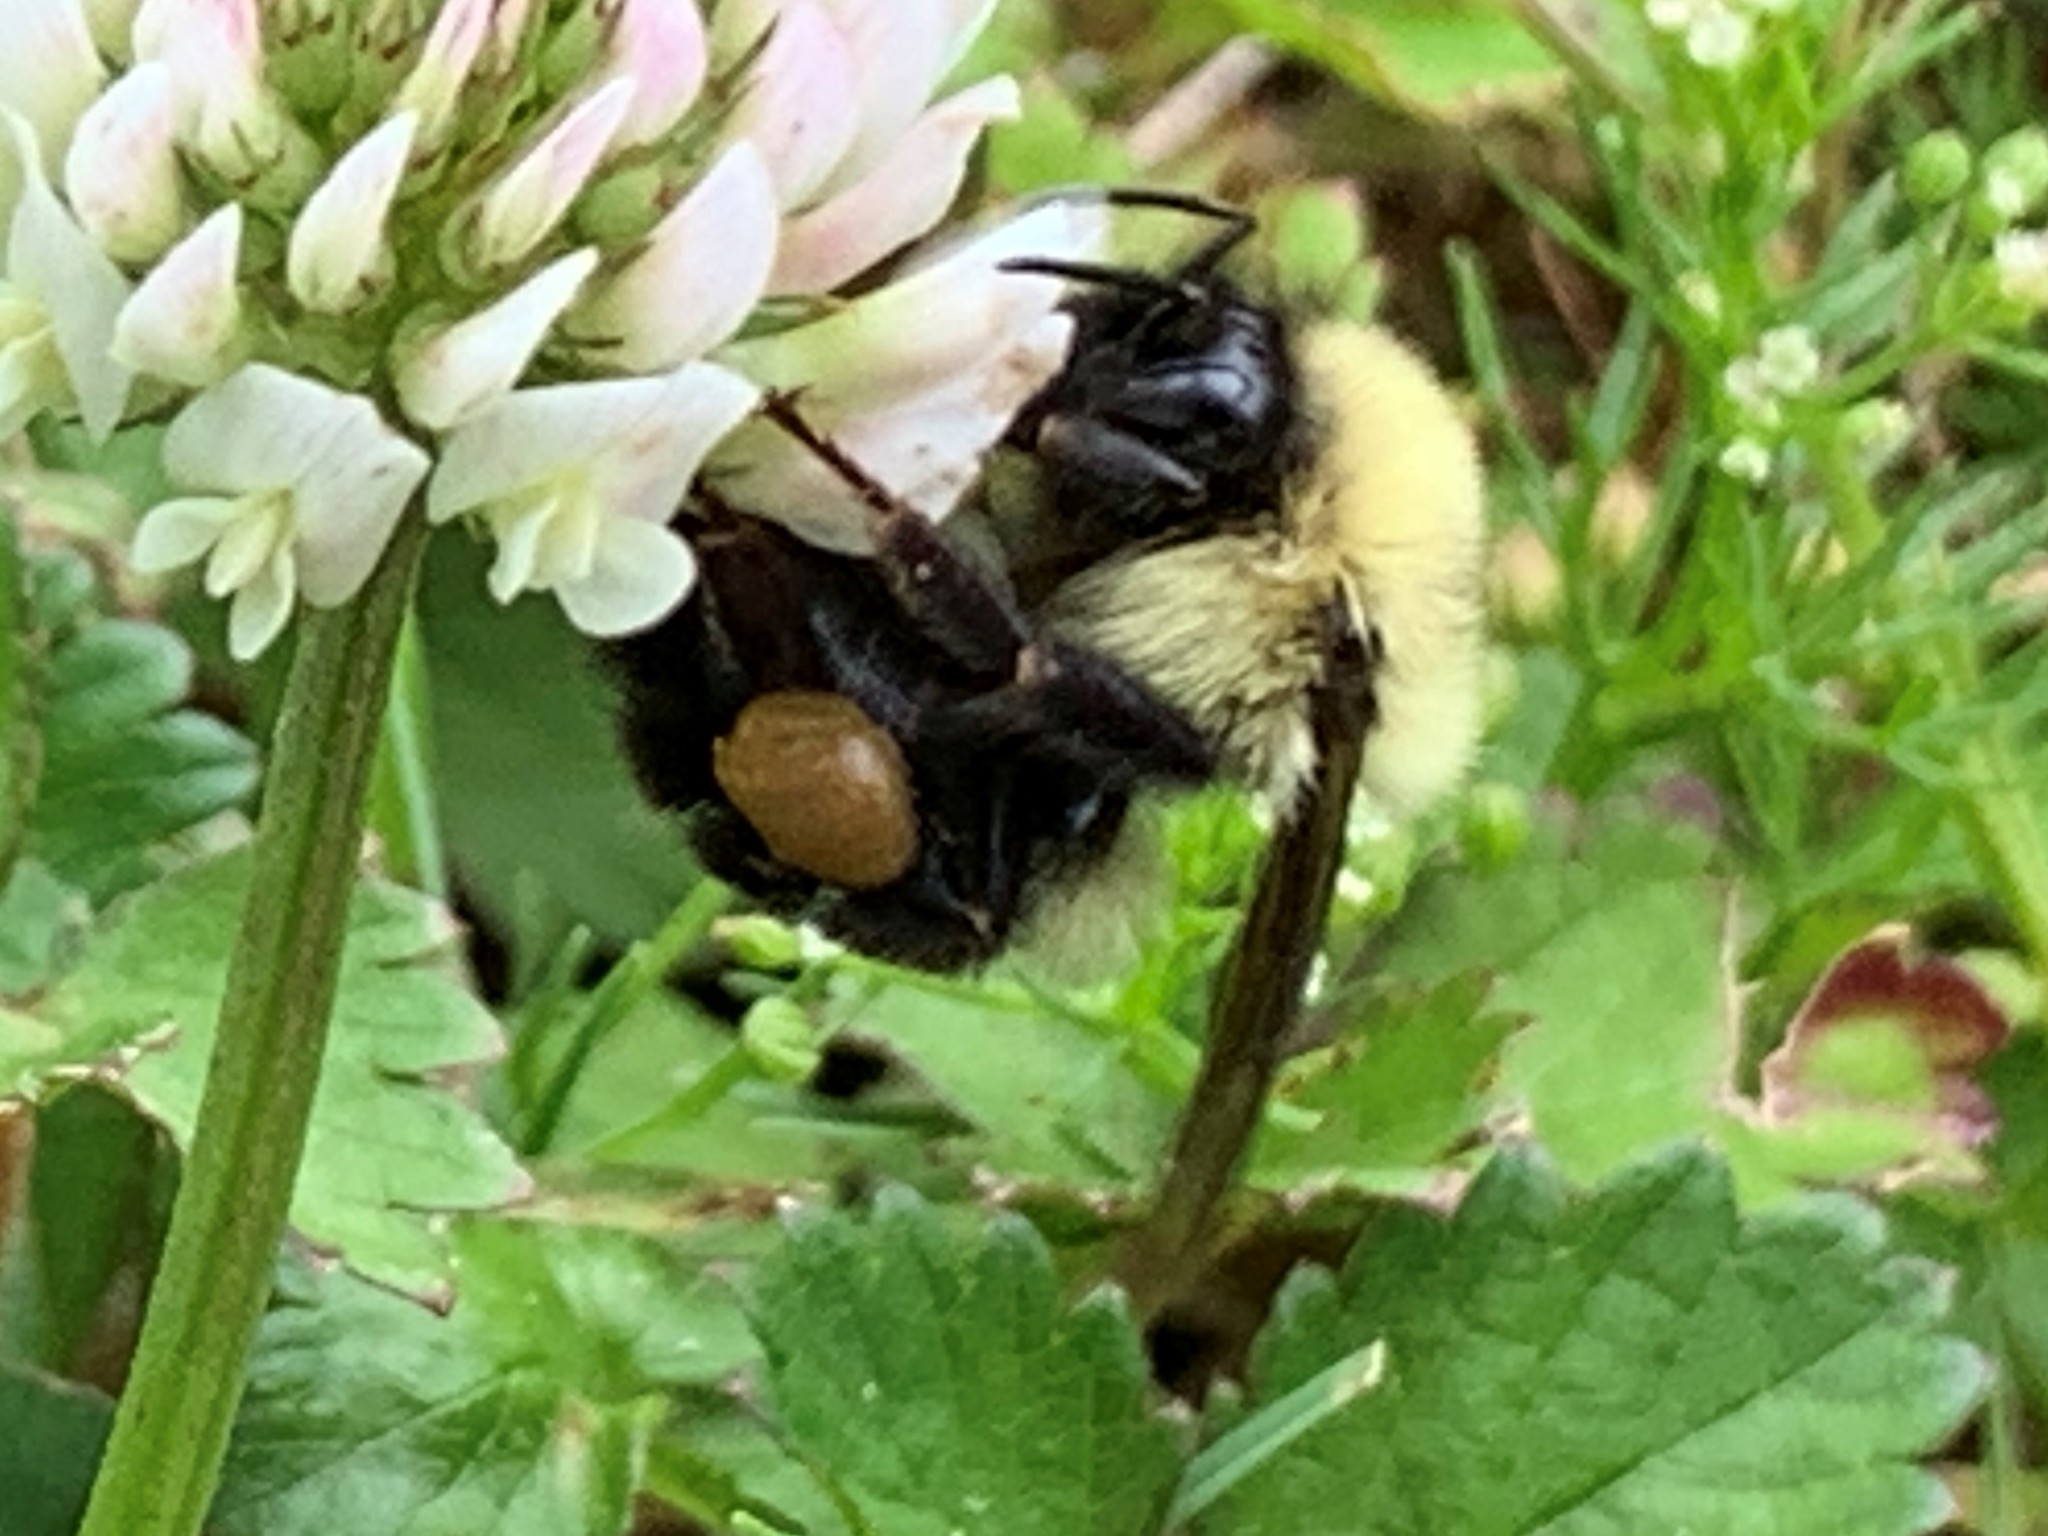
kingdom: Animalia
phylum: Arthropoda
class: Insecta
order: Hymenoptera
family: Apidae
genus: Bombus
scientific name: Bombus bimaculatus
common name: Two-spotted bumble bee
